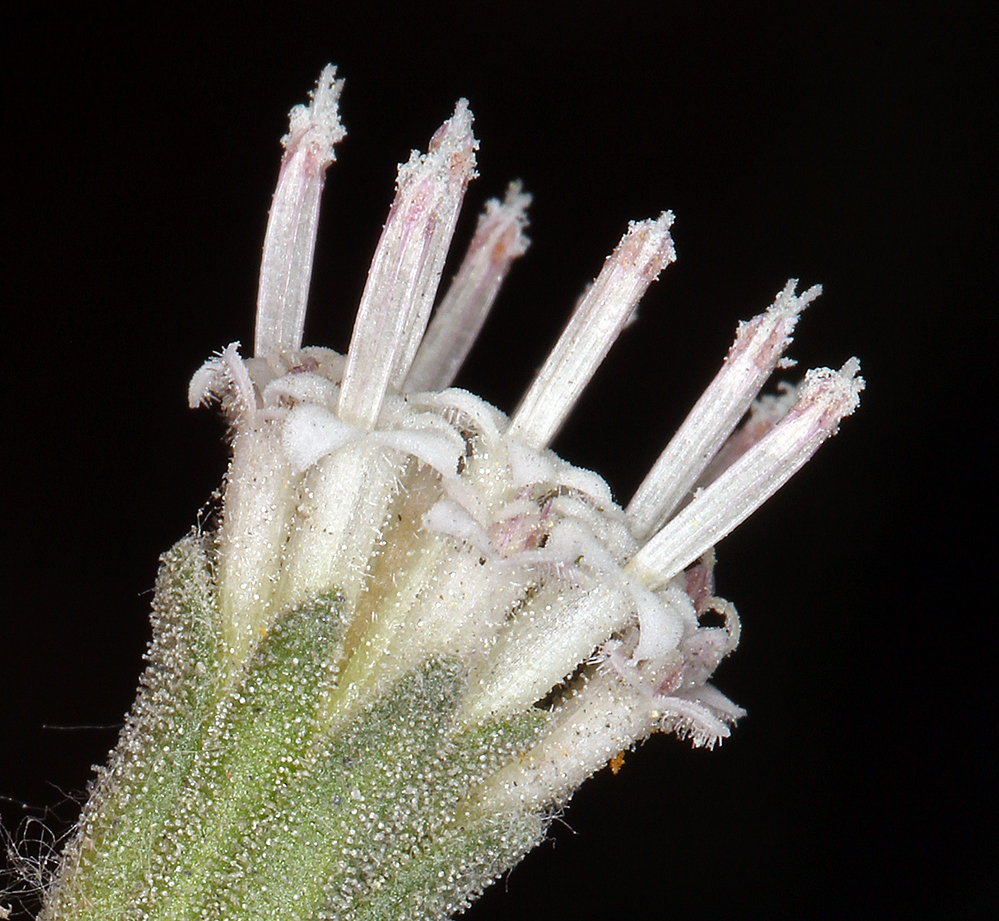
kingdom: Plantae
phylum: Tracheophyta
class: Magnoliopsida
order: Asterales
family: Asteraceae
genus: Chaenactis
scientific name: Chaenactis douglasii
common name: Hoary pincushion
